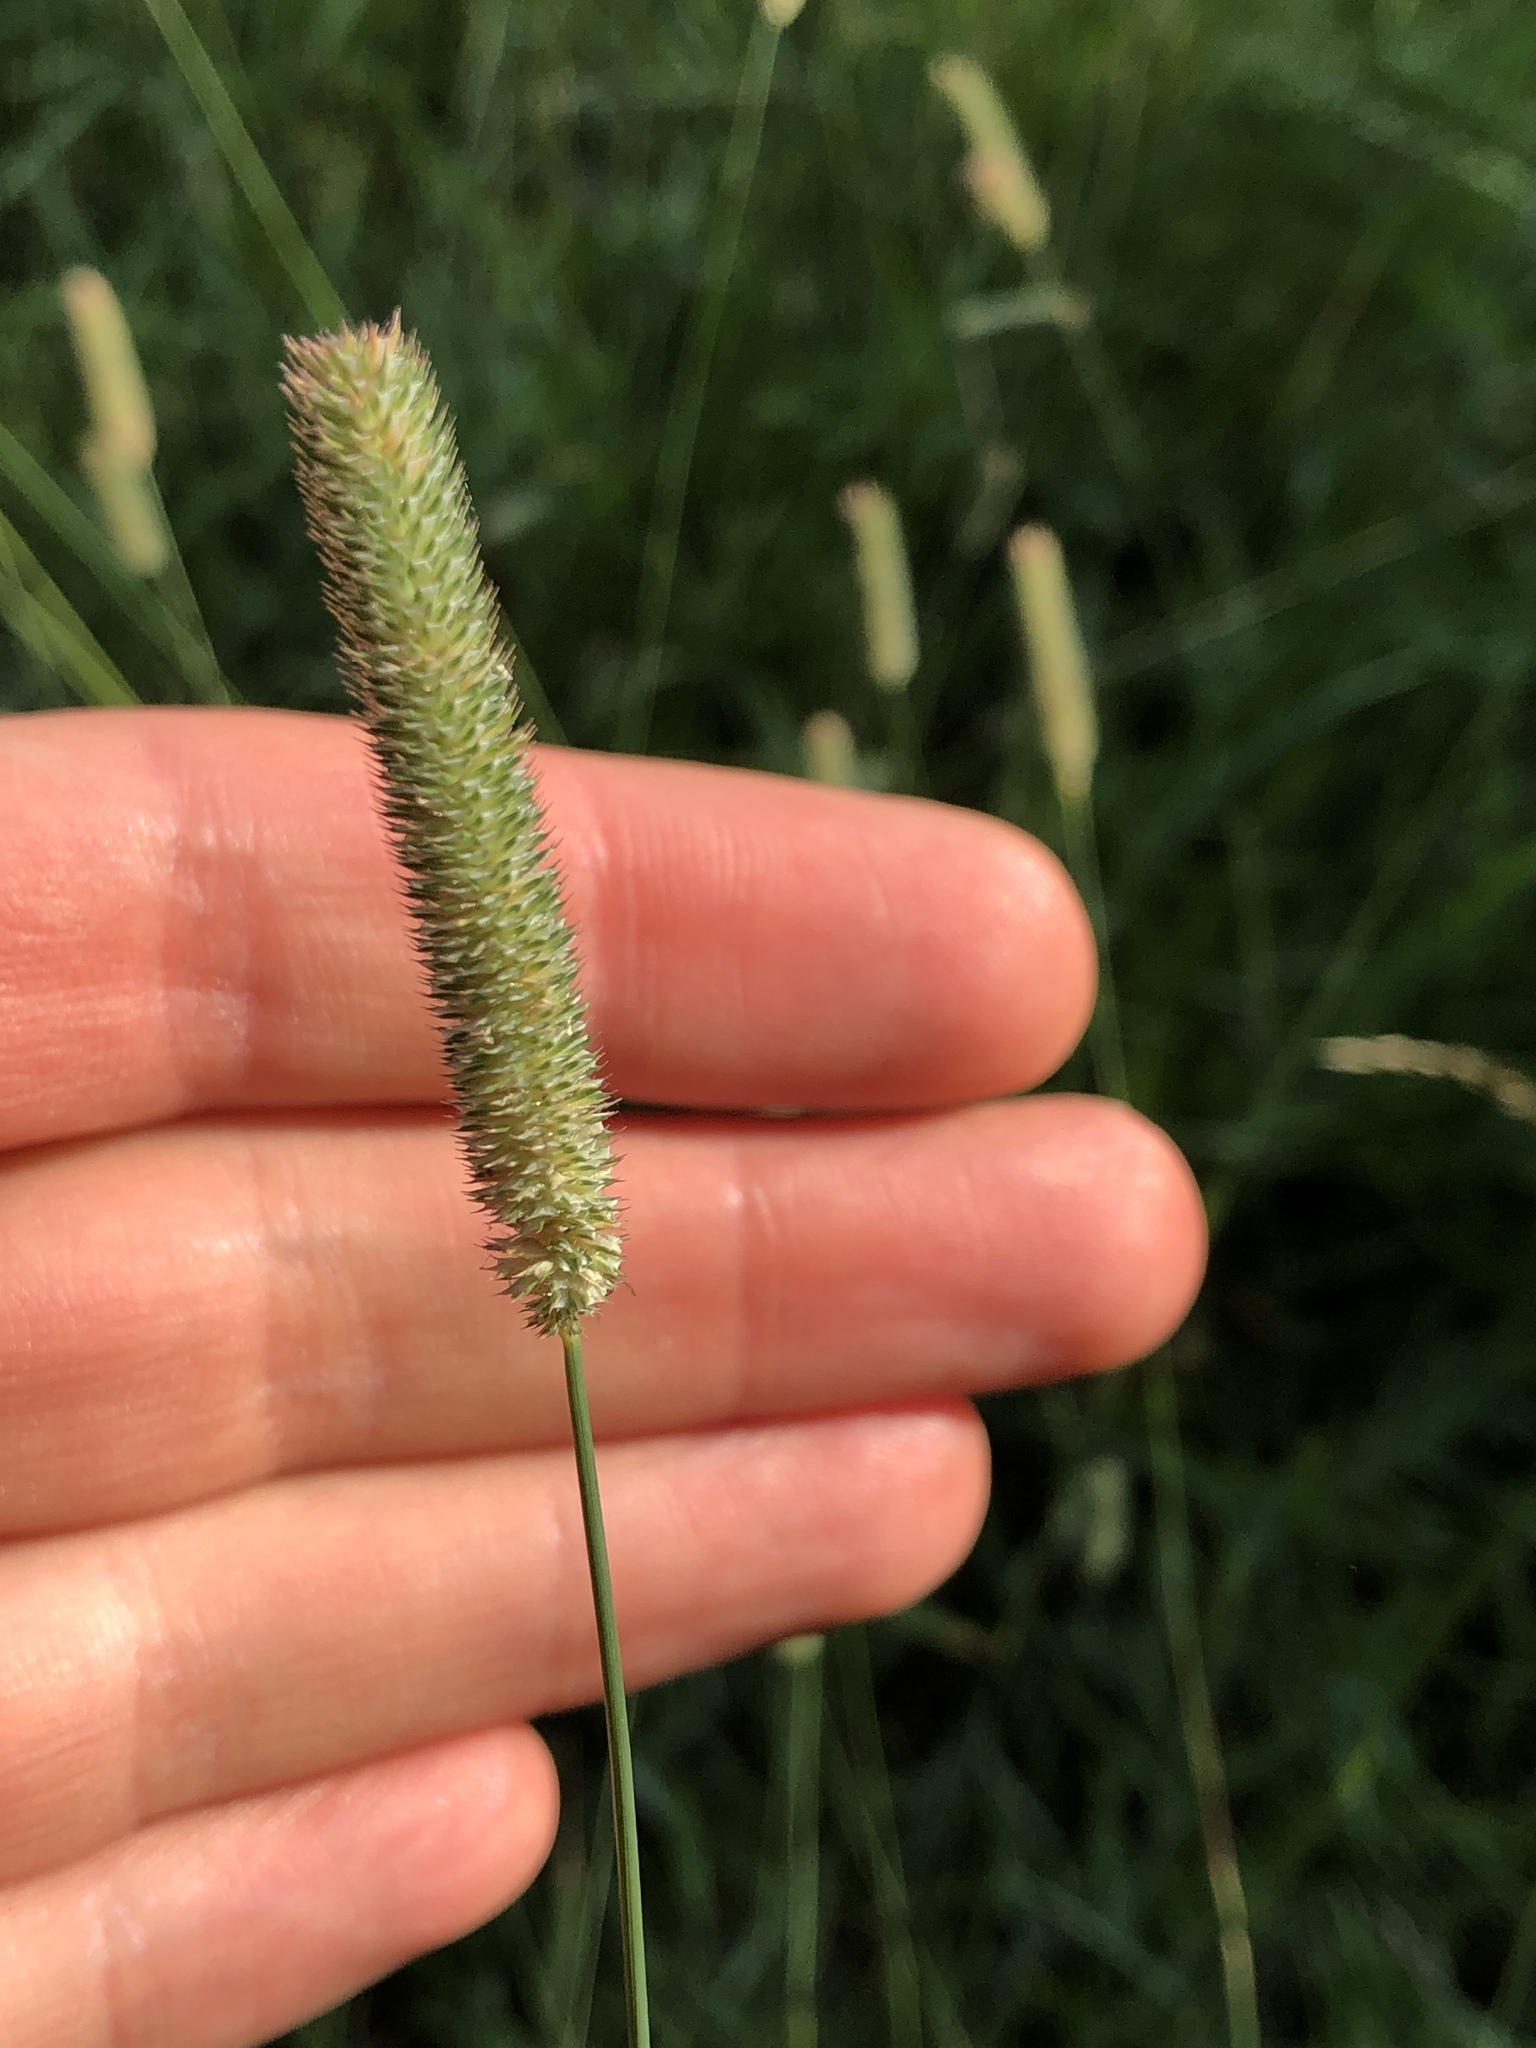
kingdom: Plantae
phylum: Tracheophyta
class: Liliopsida
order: Poales
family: Poaceae
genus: Phleum
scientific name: Phleum pratense
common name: Timothy grass
